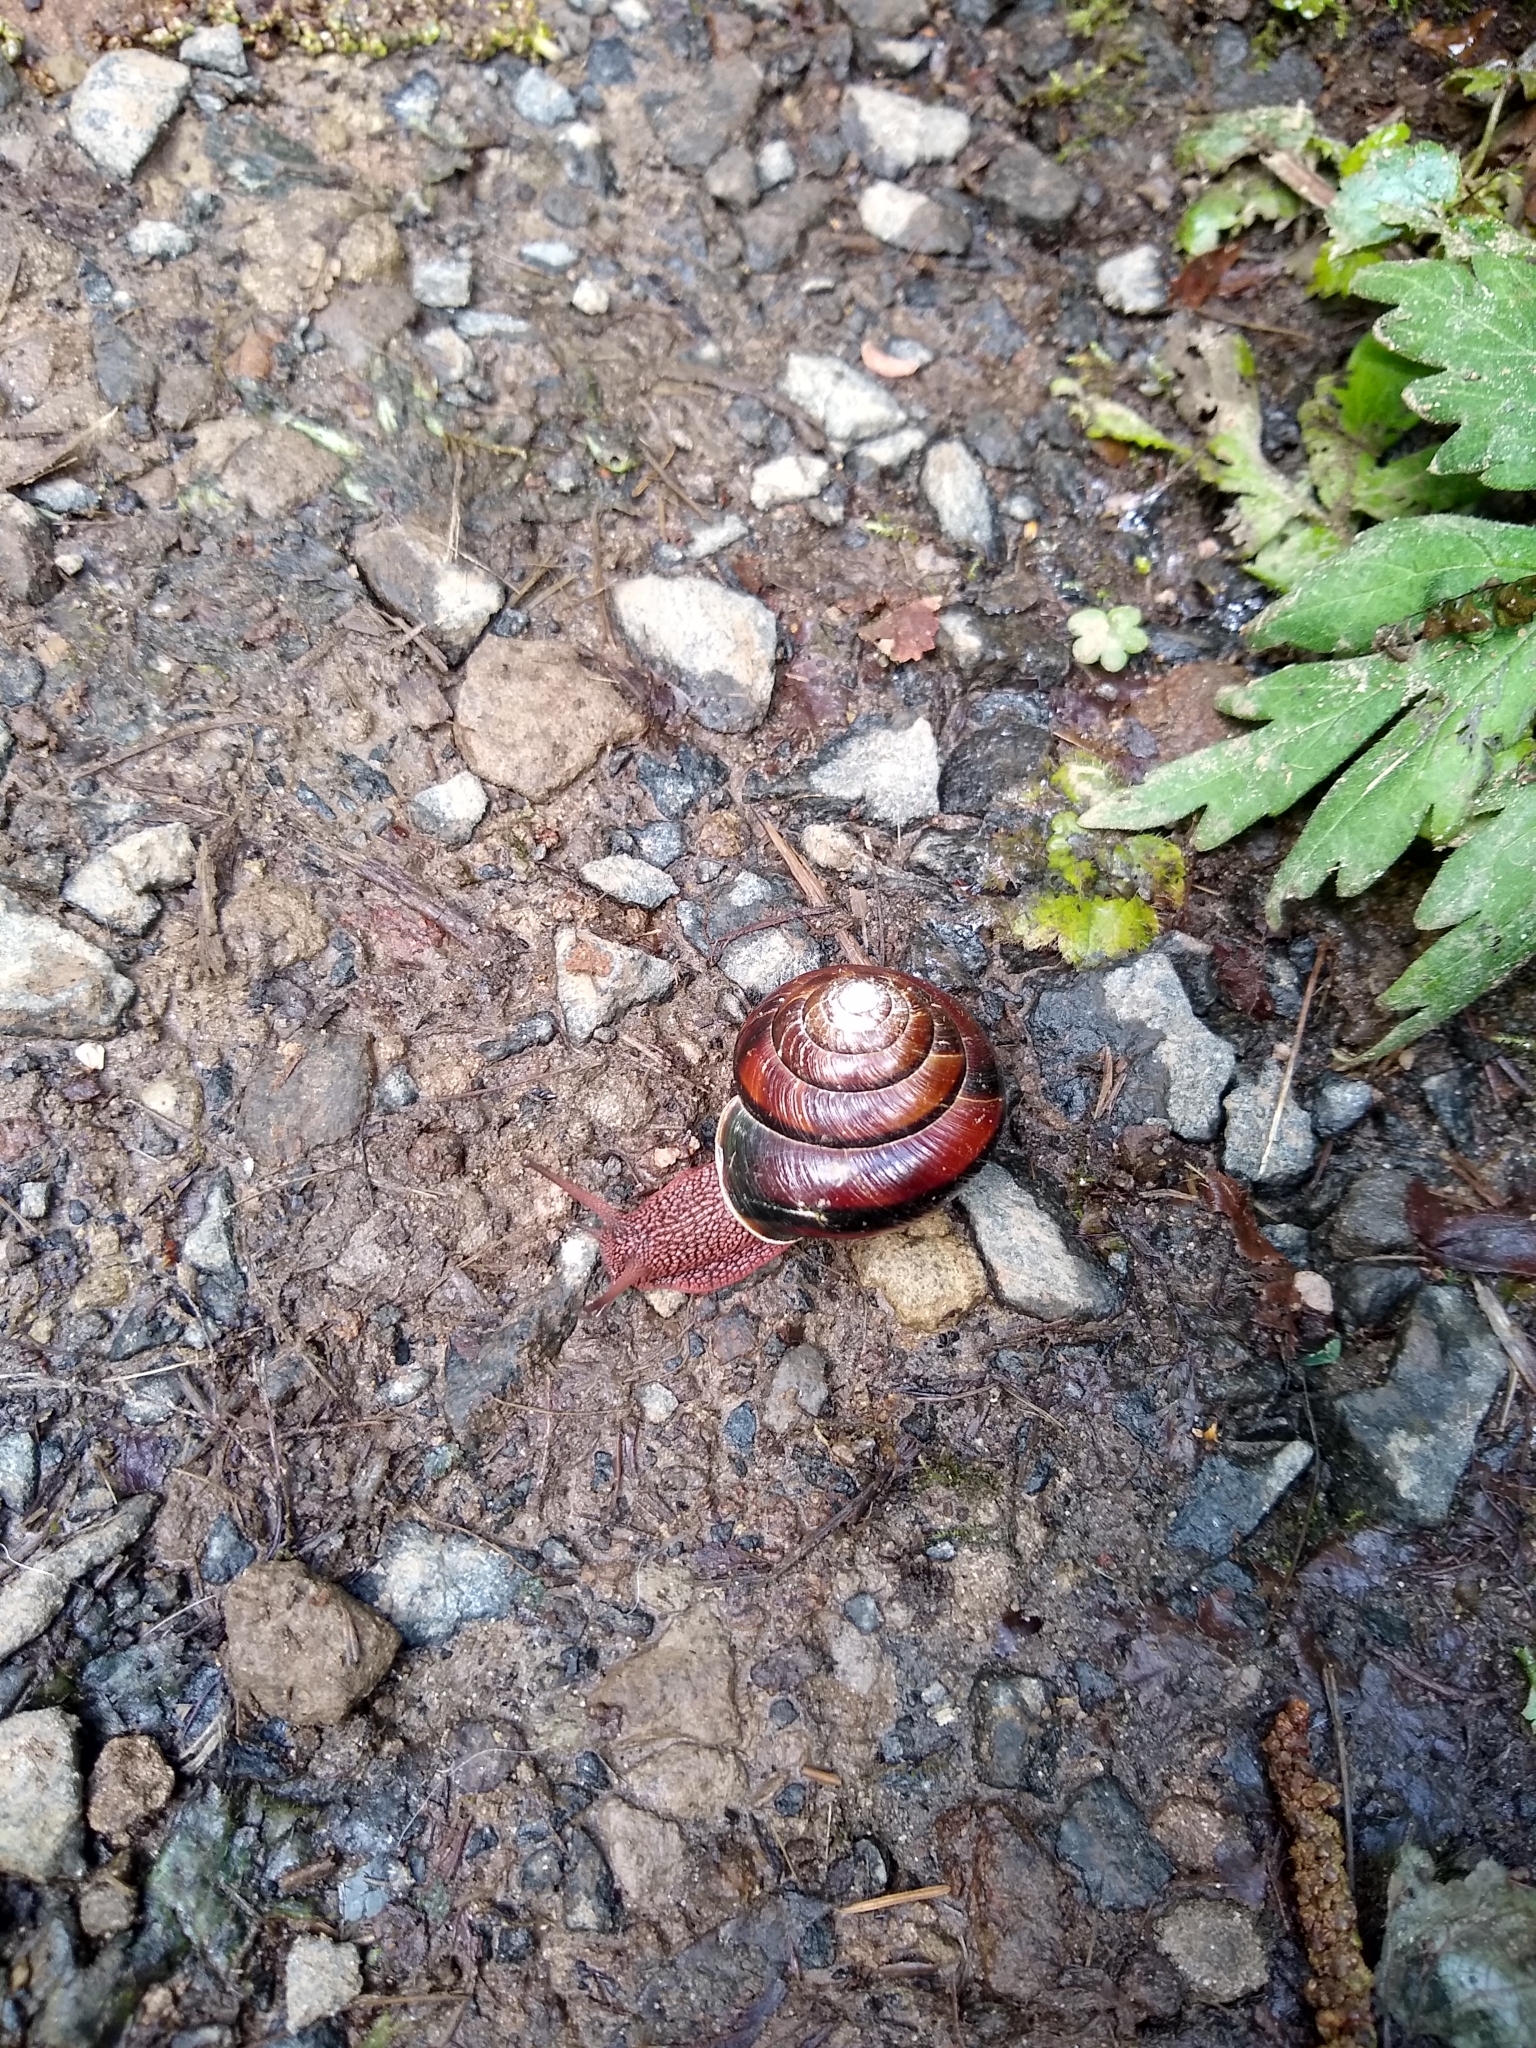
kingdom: Animalia
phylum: Mollusca
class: Gastropoda
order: Stylommatophora
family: Xanthonychidae
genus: Monadenia
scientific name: Monadenia fidelis
